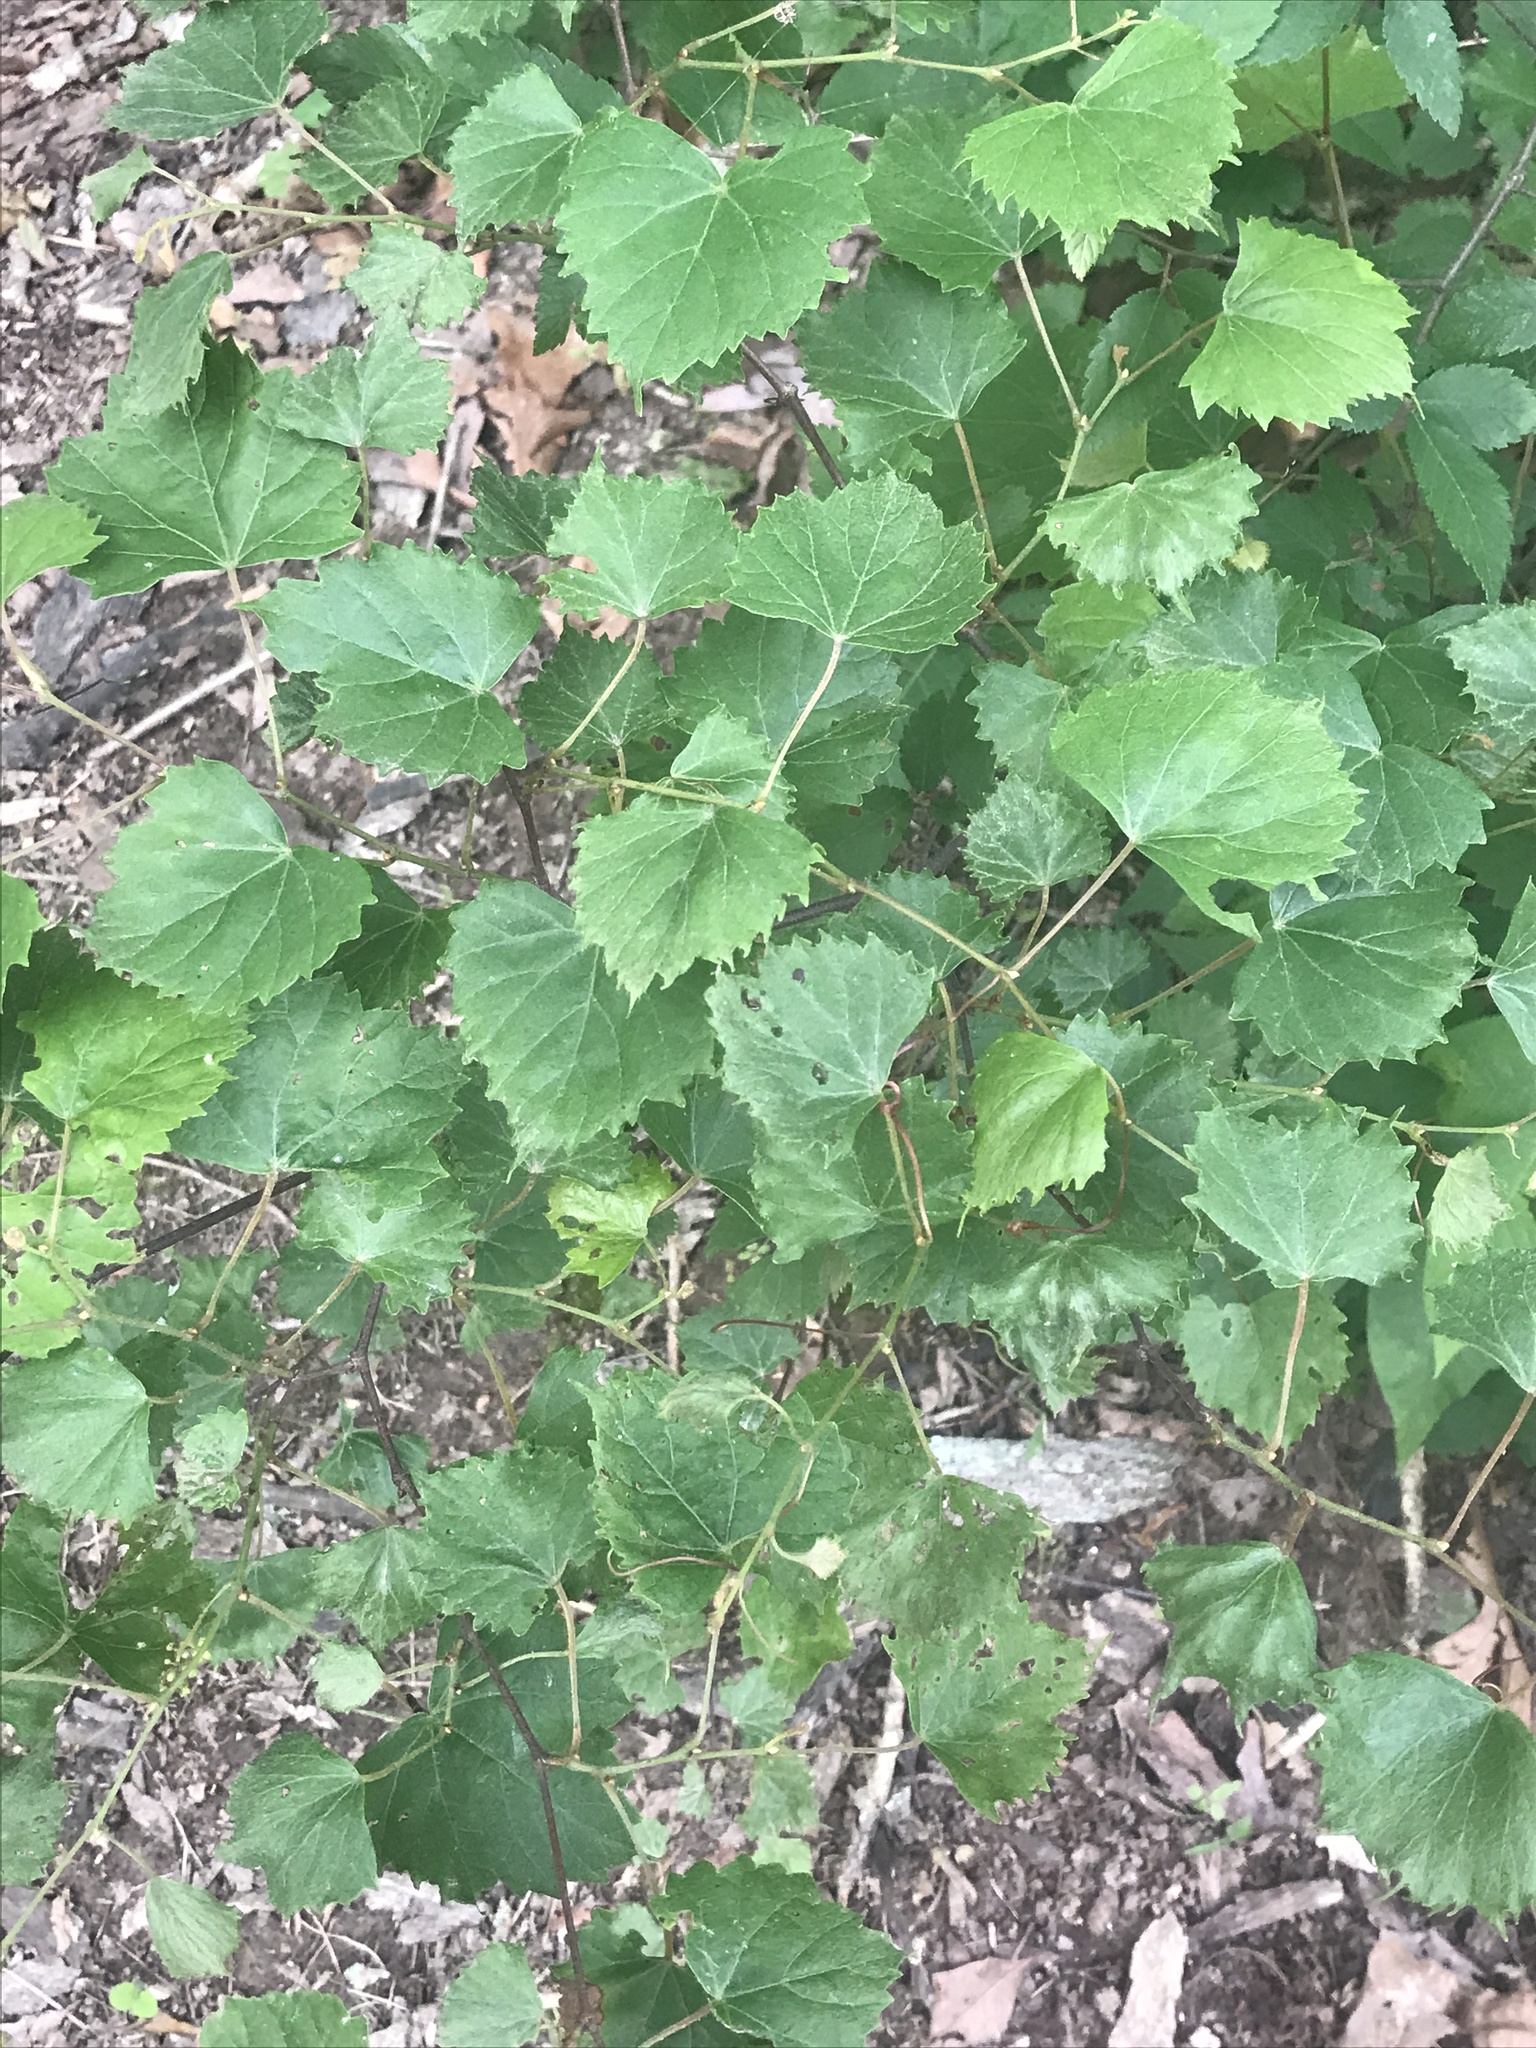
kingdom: Plantae
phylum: Tracheophyta
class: Magnoliopsida
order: Vitales
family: Vitaceae
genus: Vitis
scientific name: Vitis rotundifolia
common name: Muscadine grape
